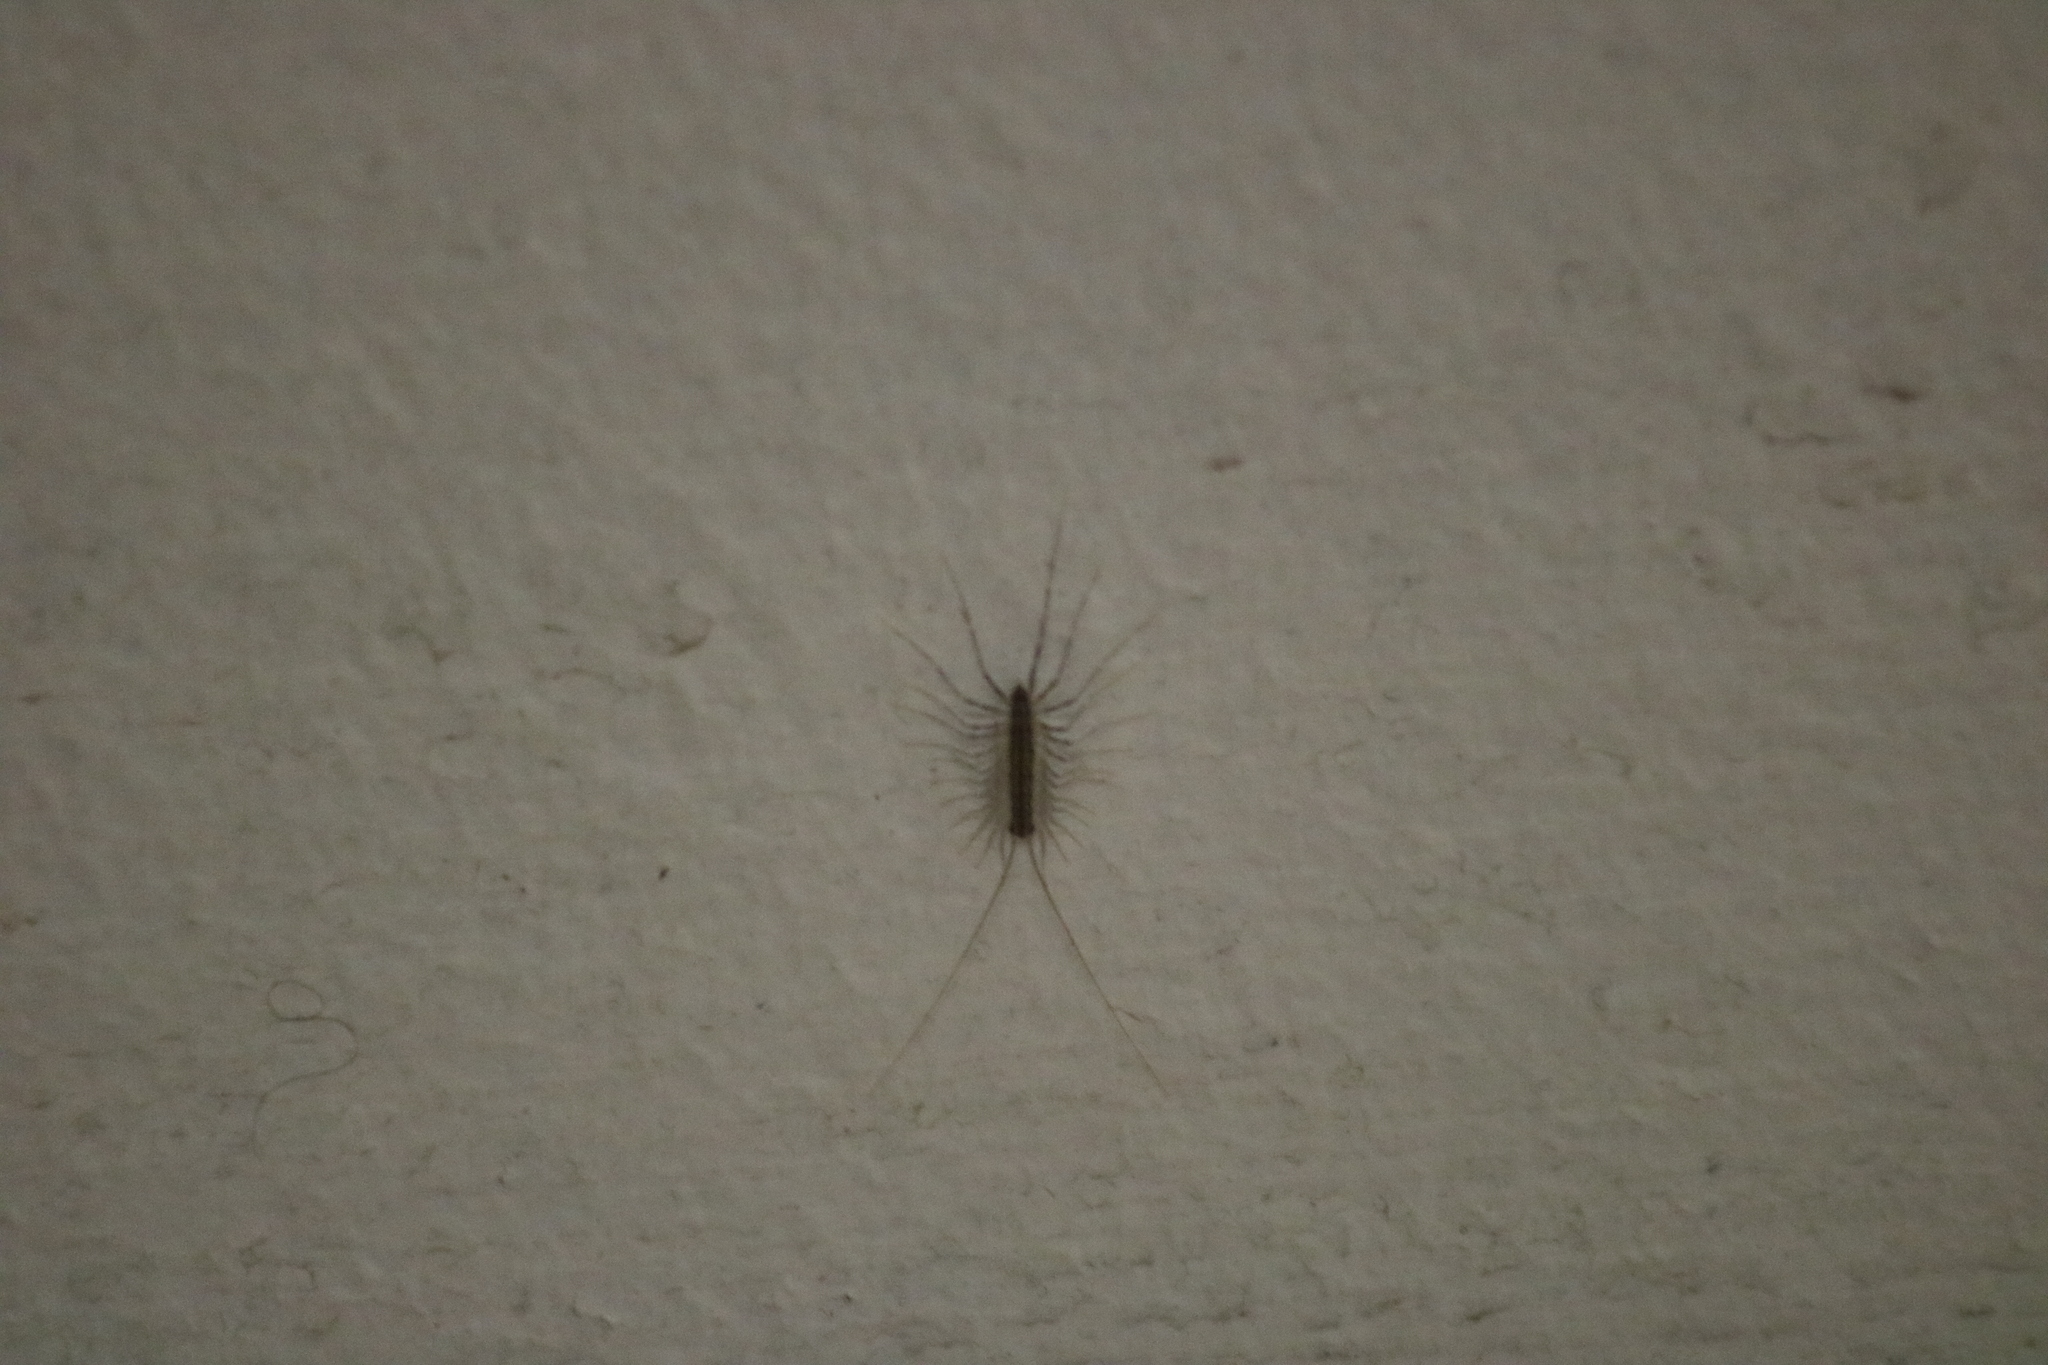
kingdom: Animalia
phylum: Arthropoda
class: Chilopoda
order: Scutigeromorpha
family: Scutigeridae
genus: Scutigera
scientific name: Scutigera coleoptrata
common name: House centipede
